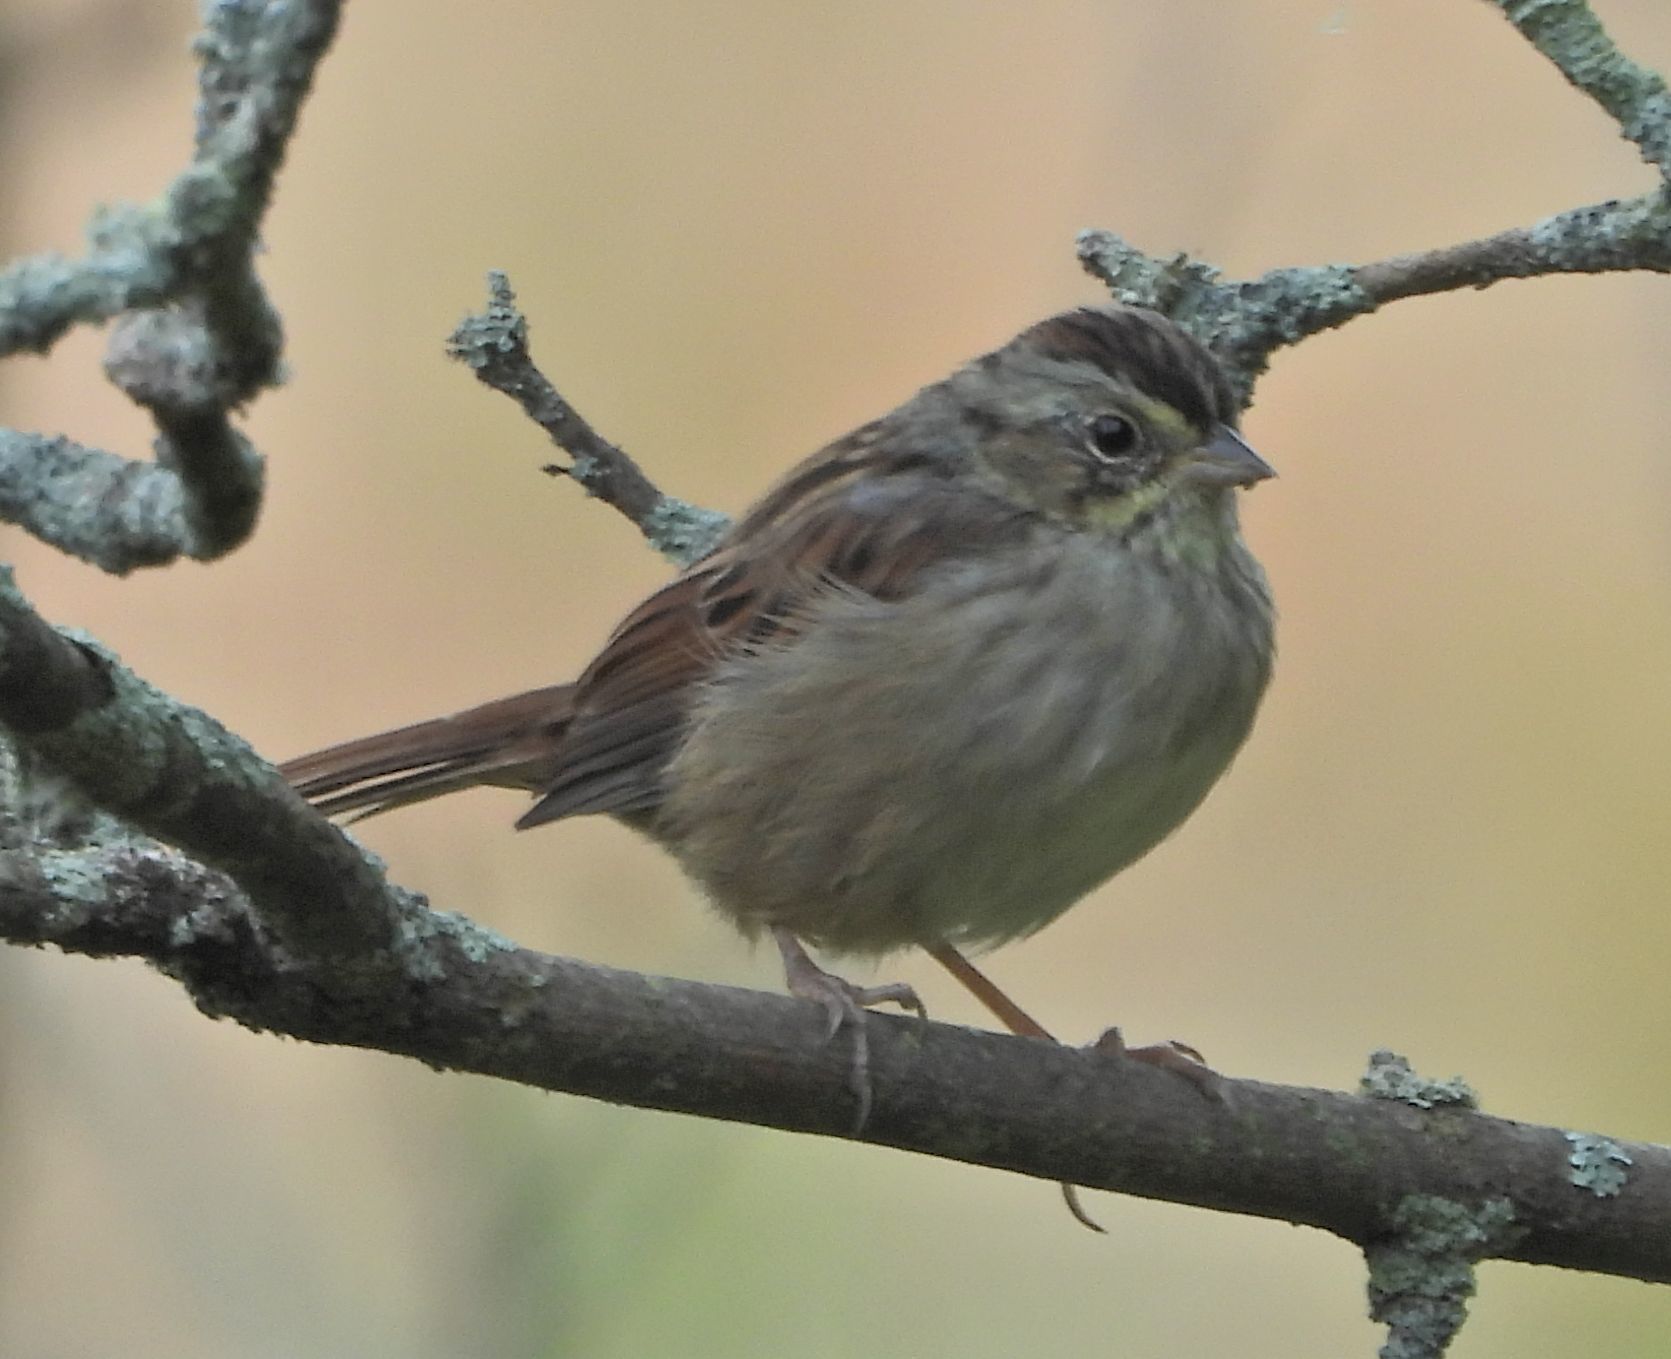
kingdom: Animalia
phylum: Chordata
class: Aves
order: Passeriformes
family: Passerellidae
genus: Melospiza
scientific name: Melospiza georgiana
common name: Swamp sparrow
